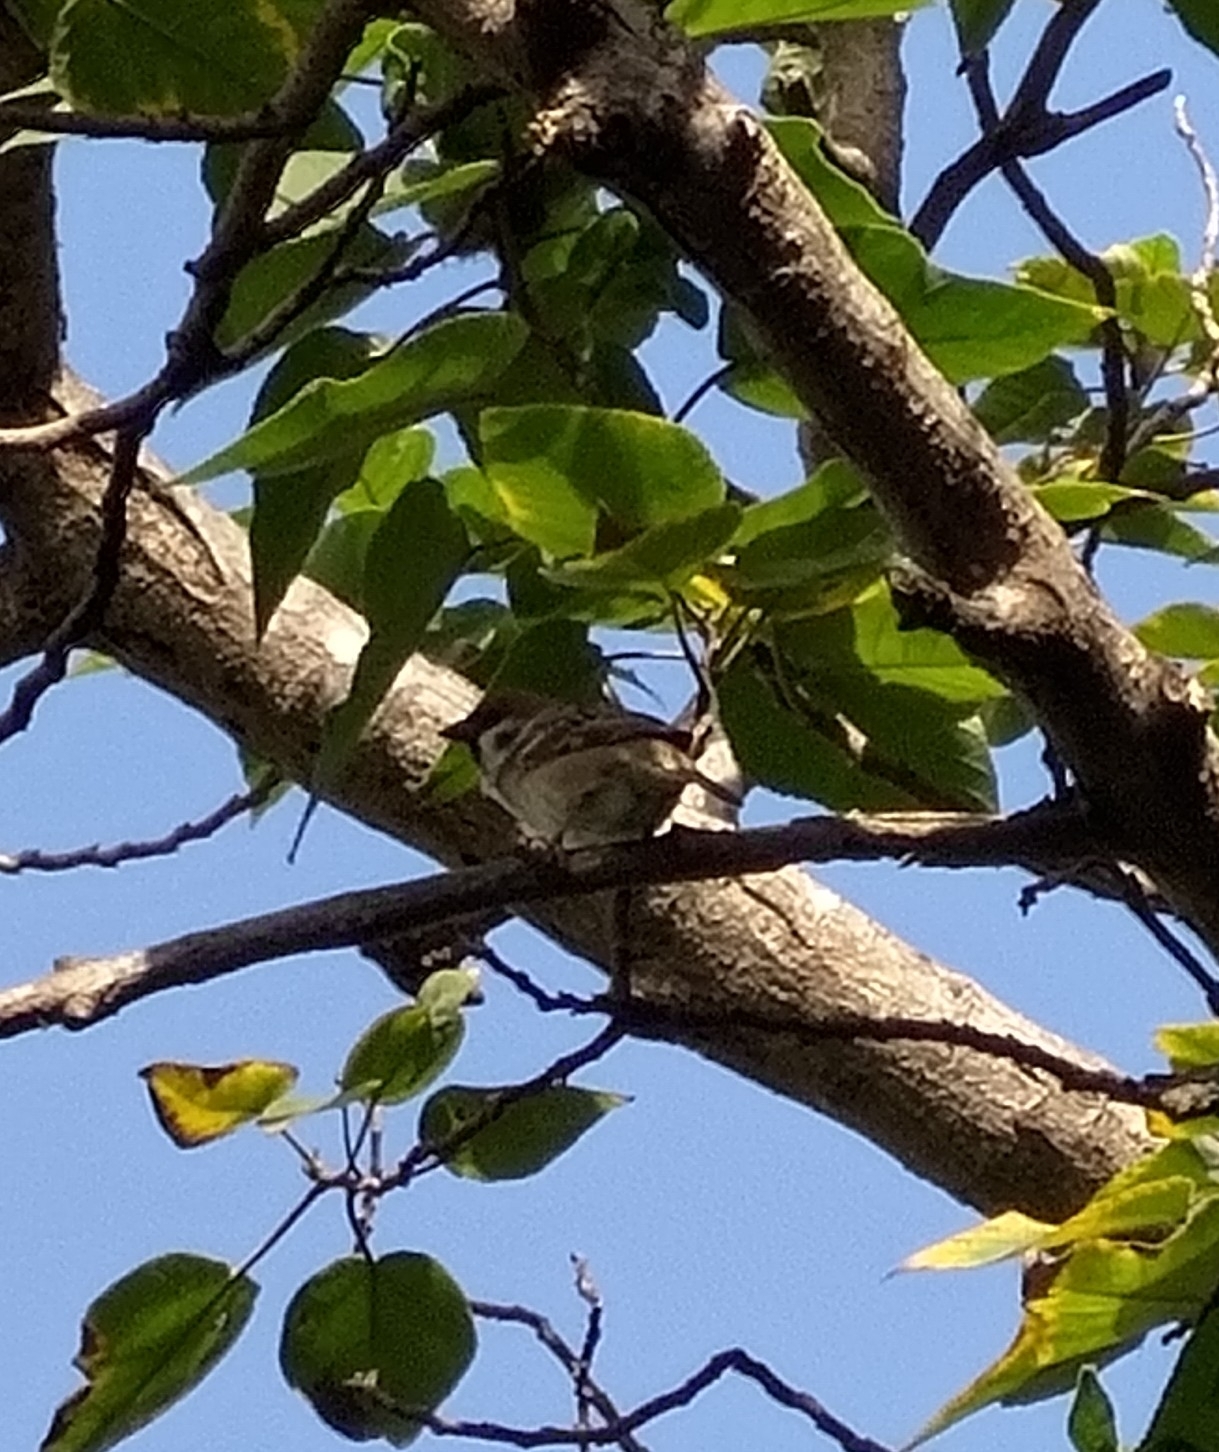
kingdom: Animalia
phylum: Chordata
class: Aves
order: Passeriformes
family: Passeridae
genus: Passer
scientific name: Passer montanus
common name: Eurasian tree sparrow
